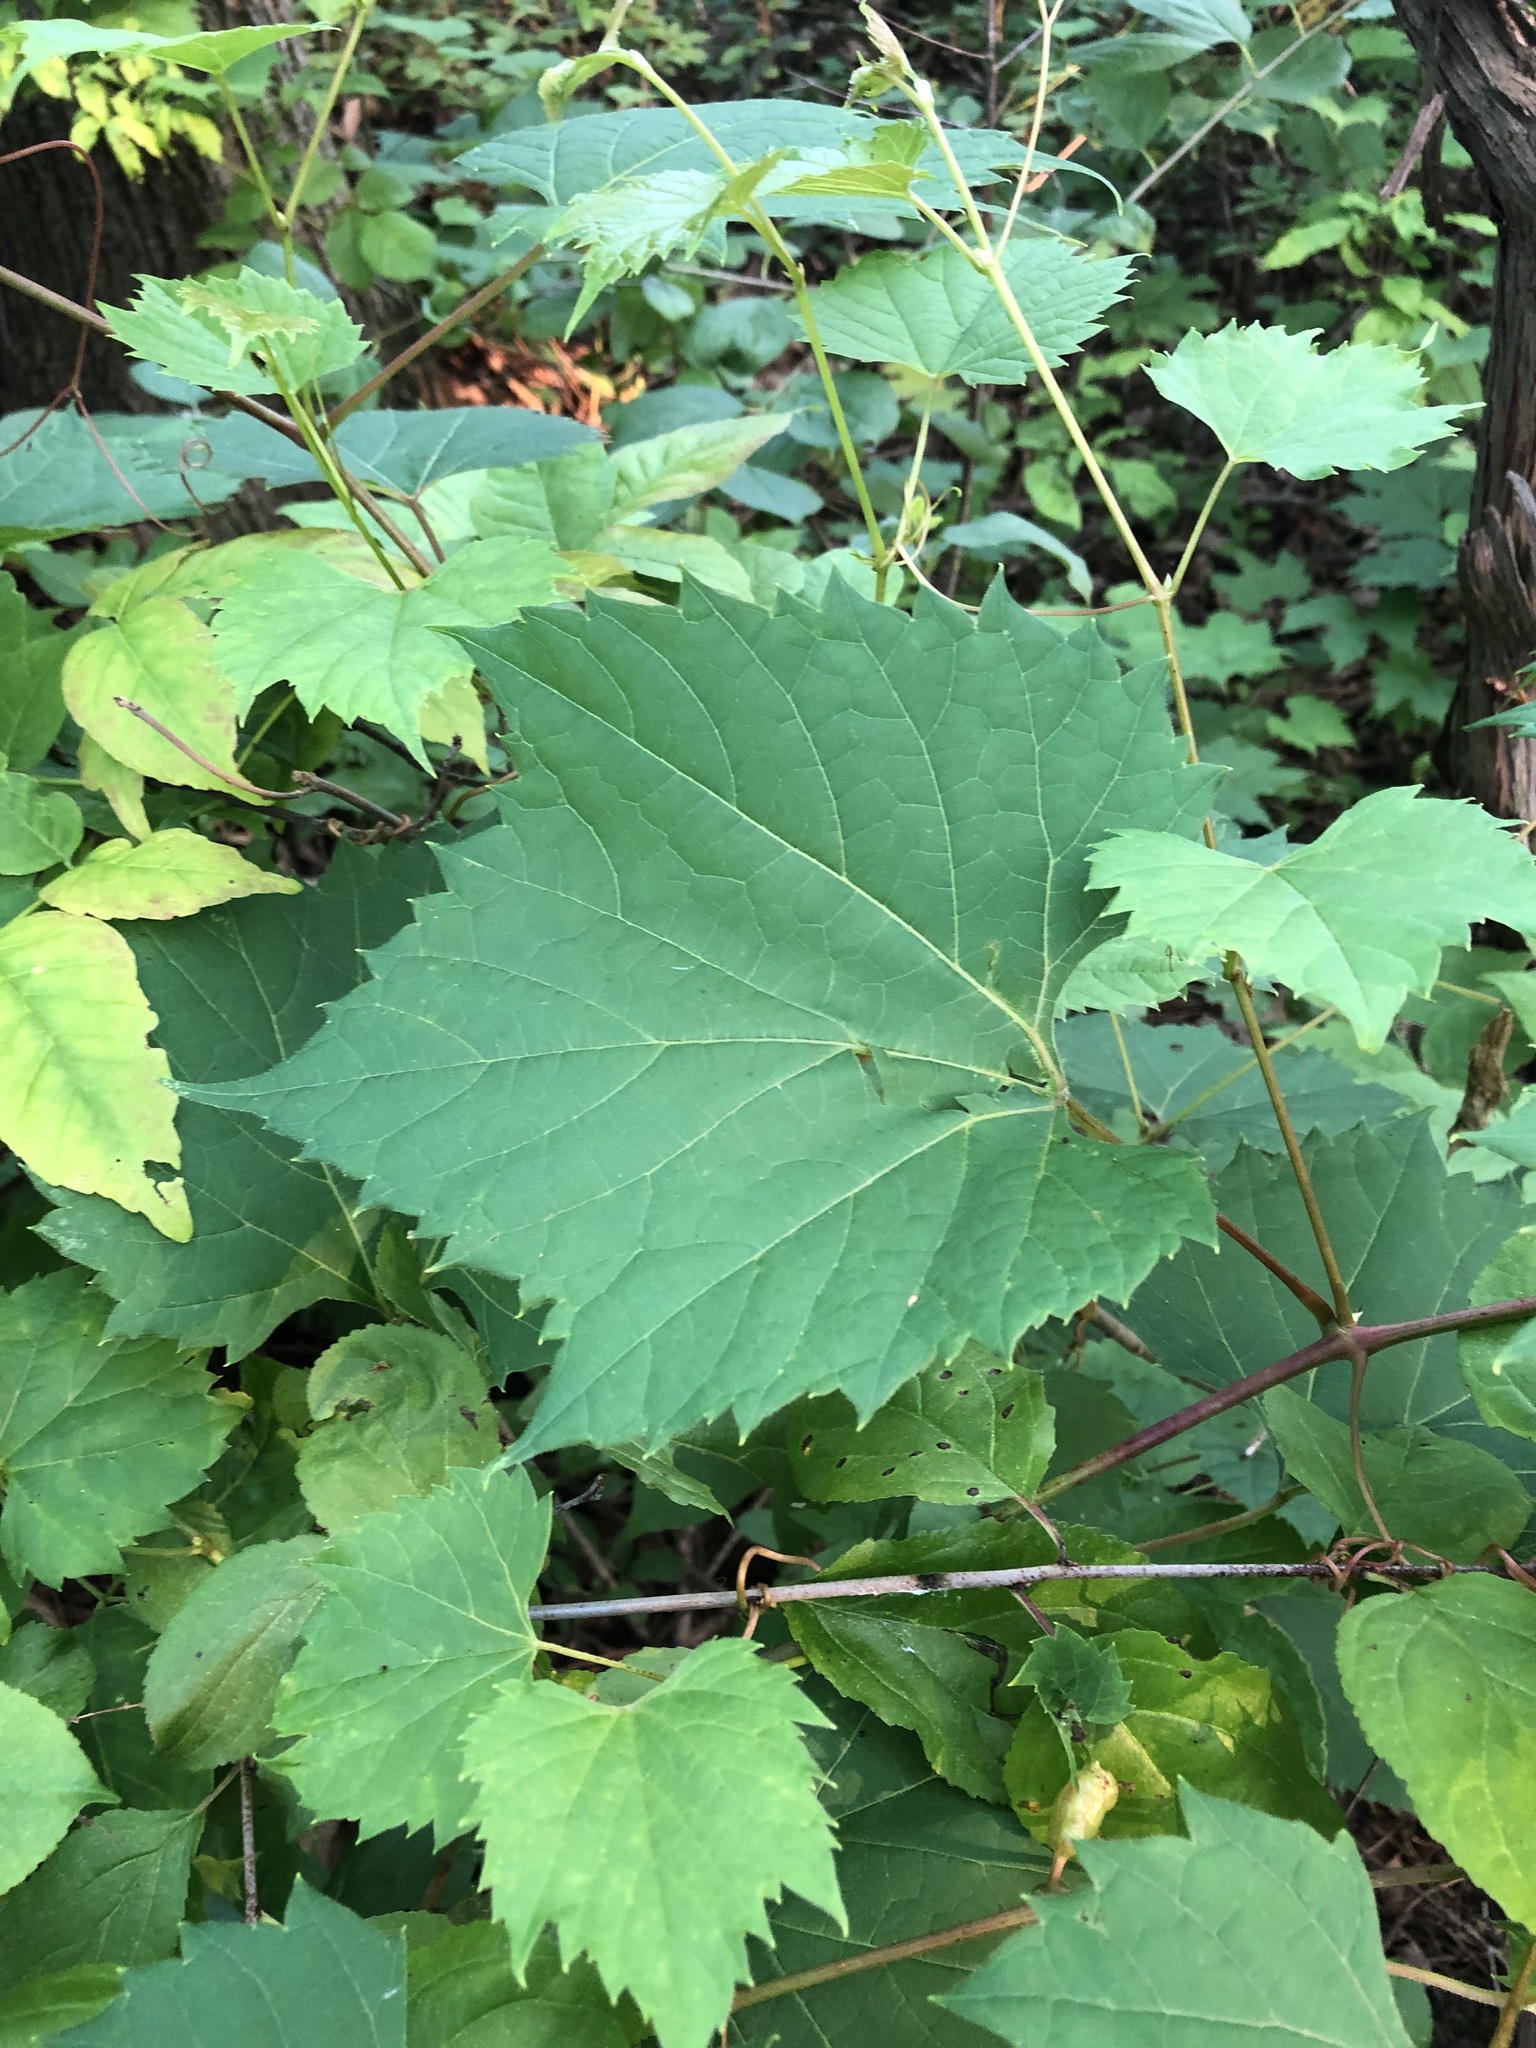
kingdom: Plantae
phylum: Tracheophyta
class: Magnoliopsida
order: Vitales
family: Vitaceae
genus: Vitis
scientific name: Vitis riparia
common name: Frost grape
